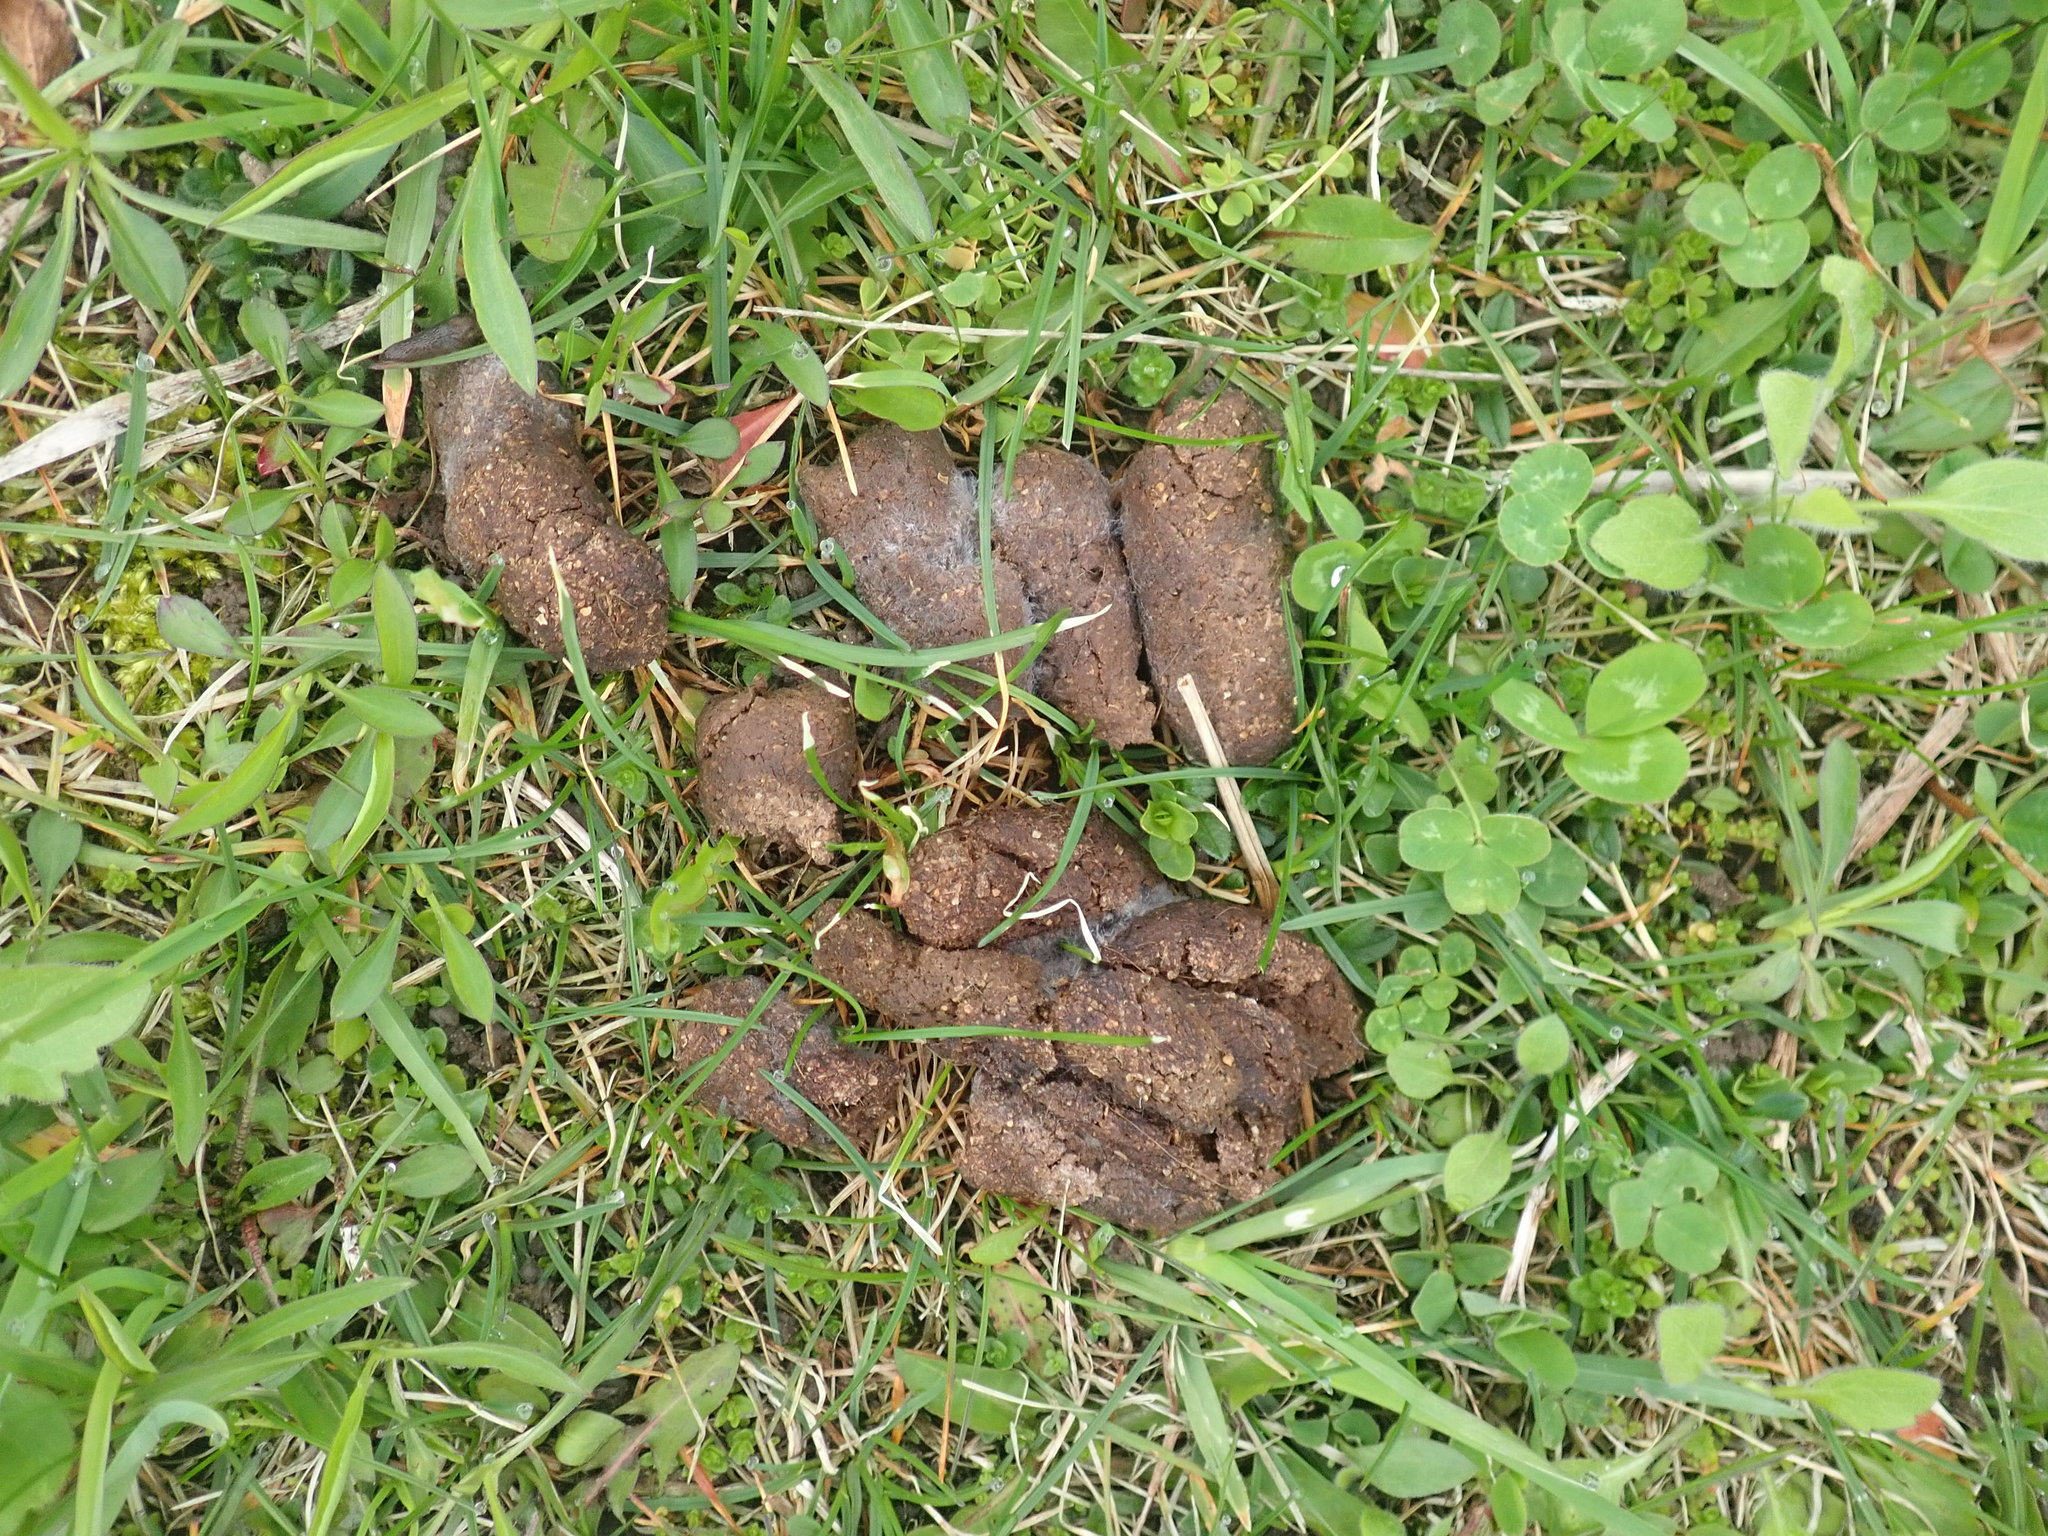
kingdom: Animalia
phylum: Chordata
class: Mammalia
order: Carnivora
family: Canidae
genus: Canis
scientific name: Canis lupus
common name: Gray wolf
